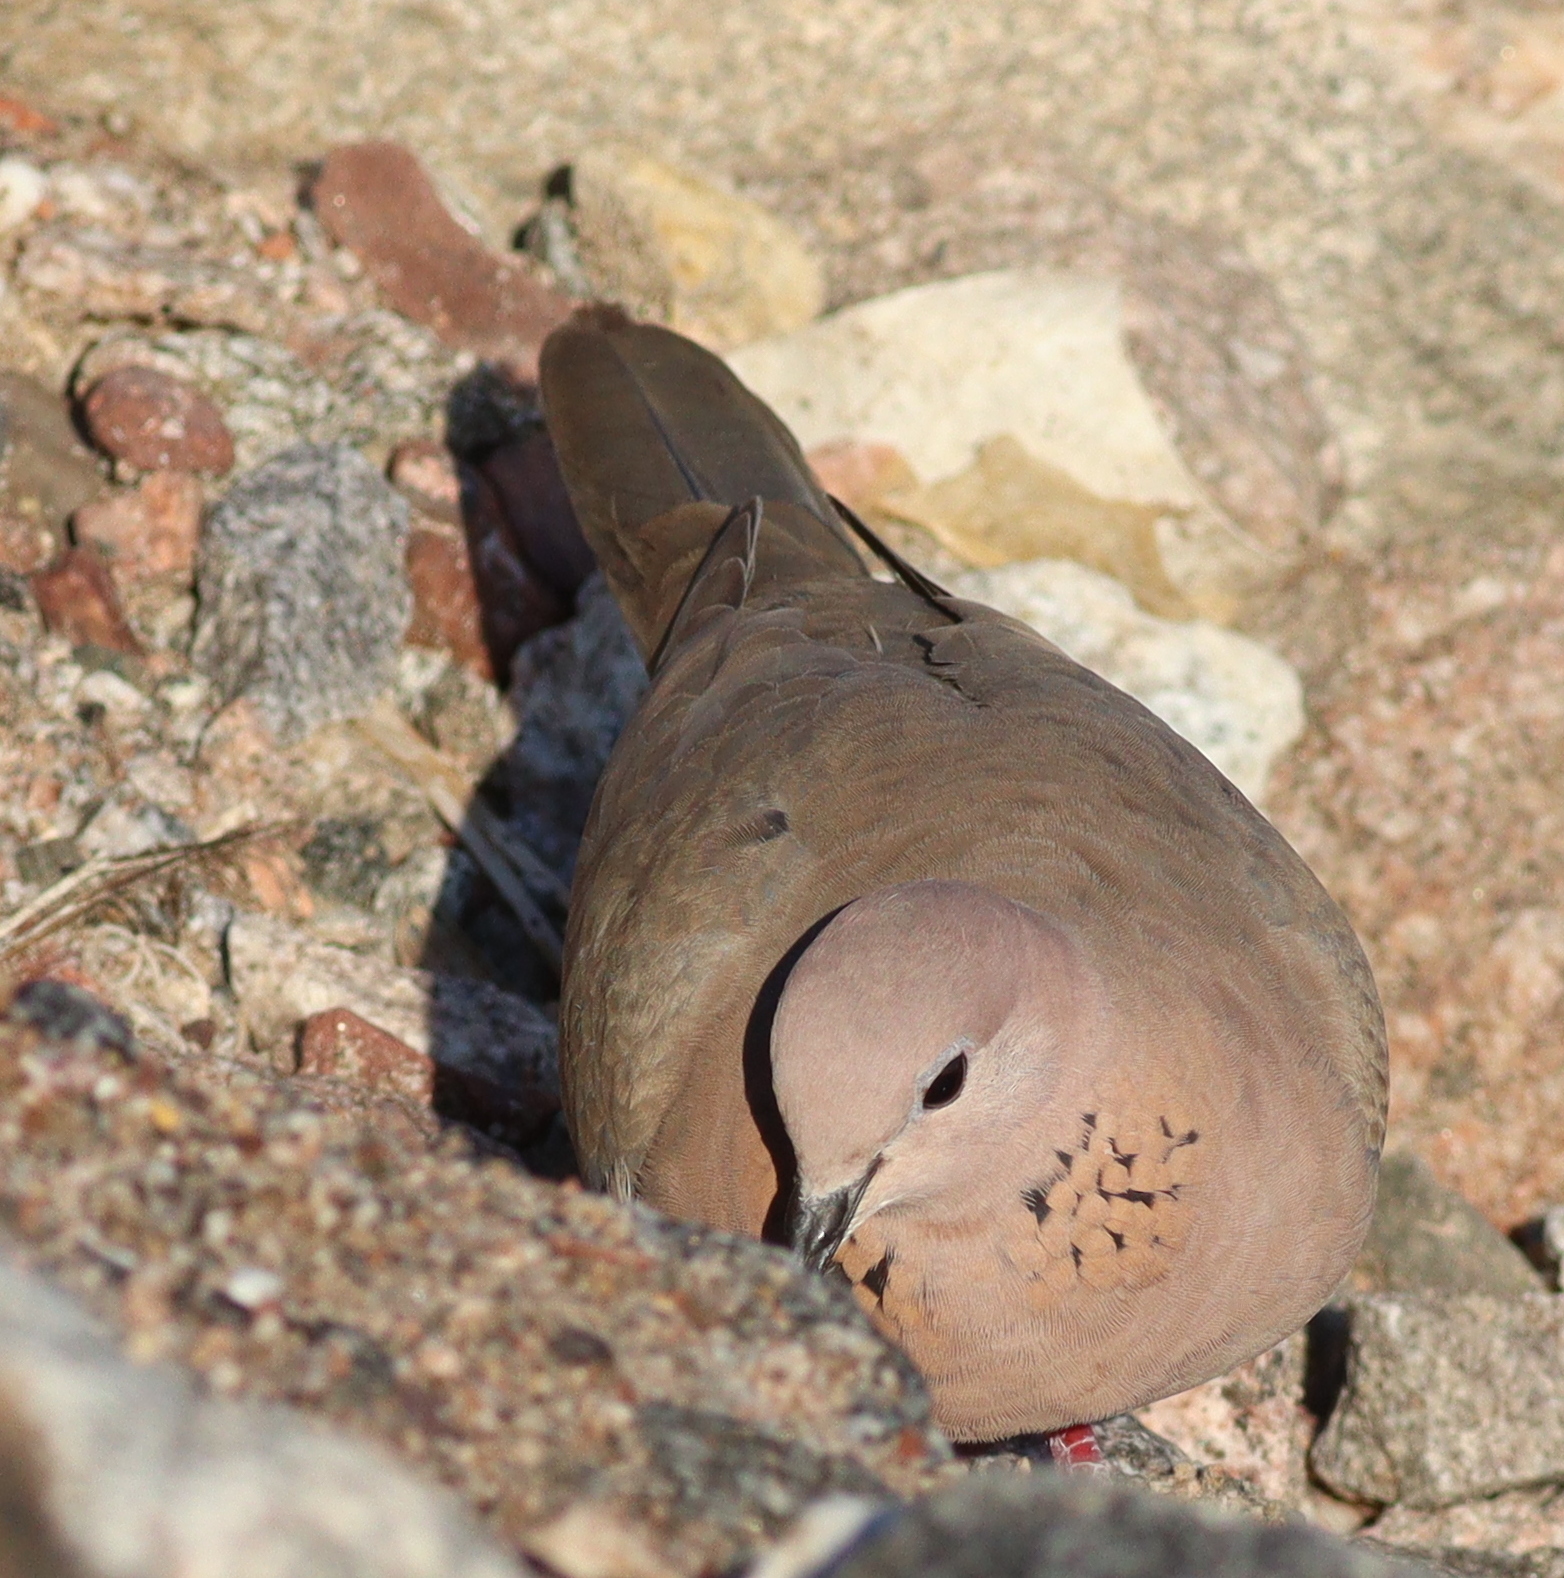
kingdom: Animalia
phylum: Chordata
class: Aves
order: Columbiformes
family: Columbidae
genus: Spilopelia
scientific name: Spilopelia senegalensis
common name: Laughing dove
